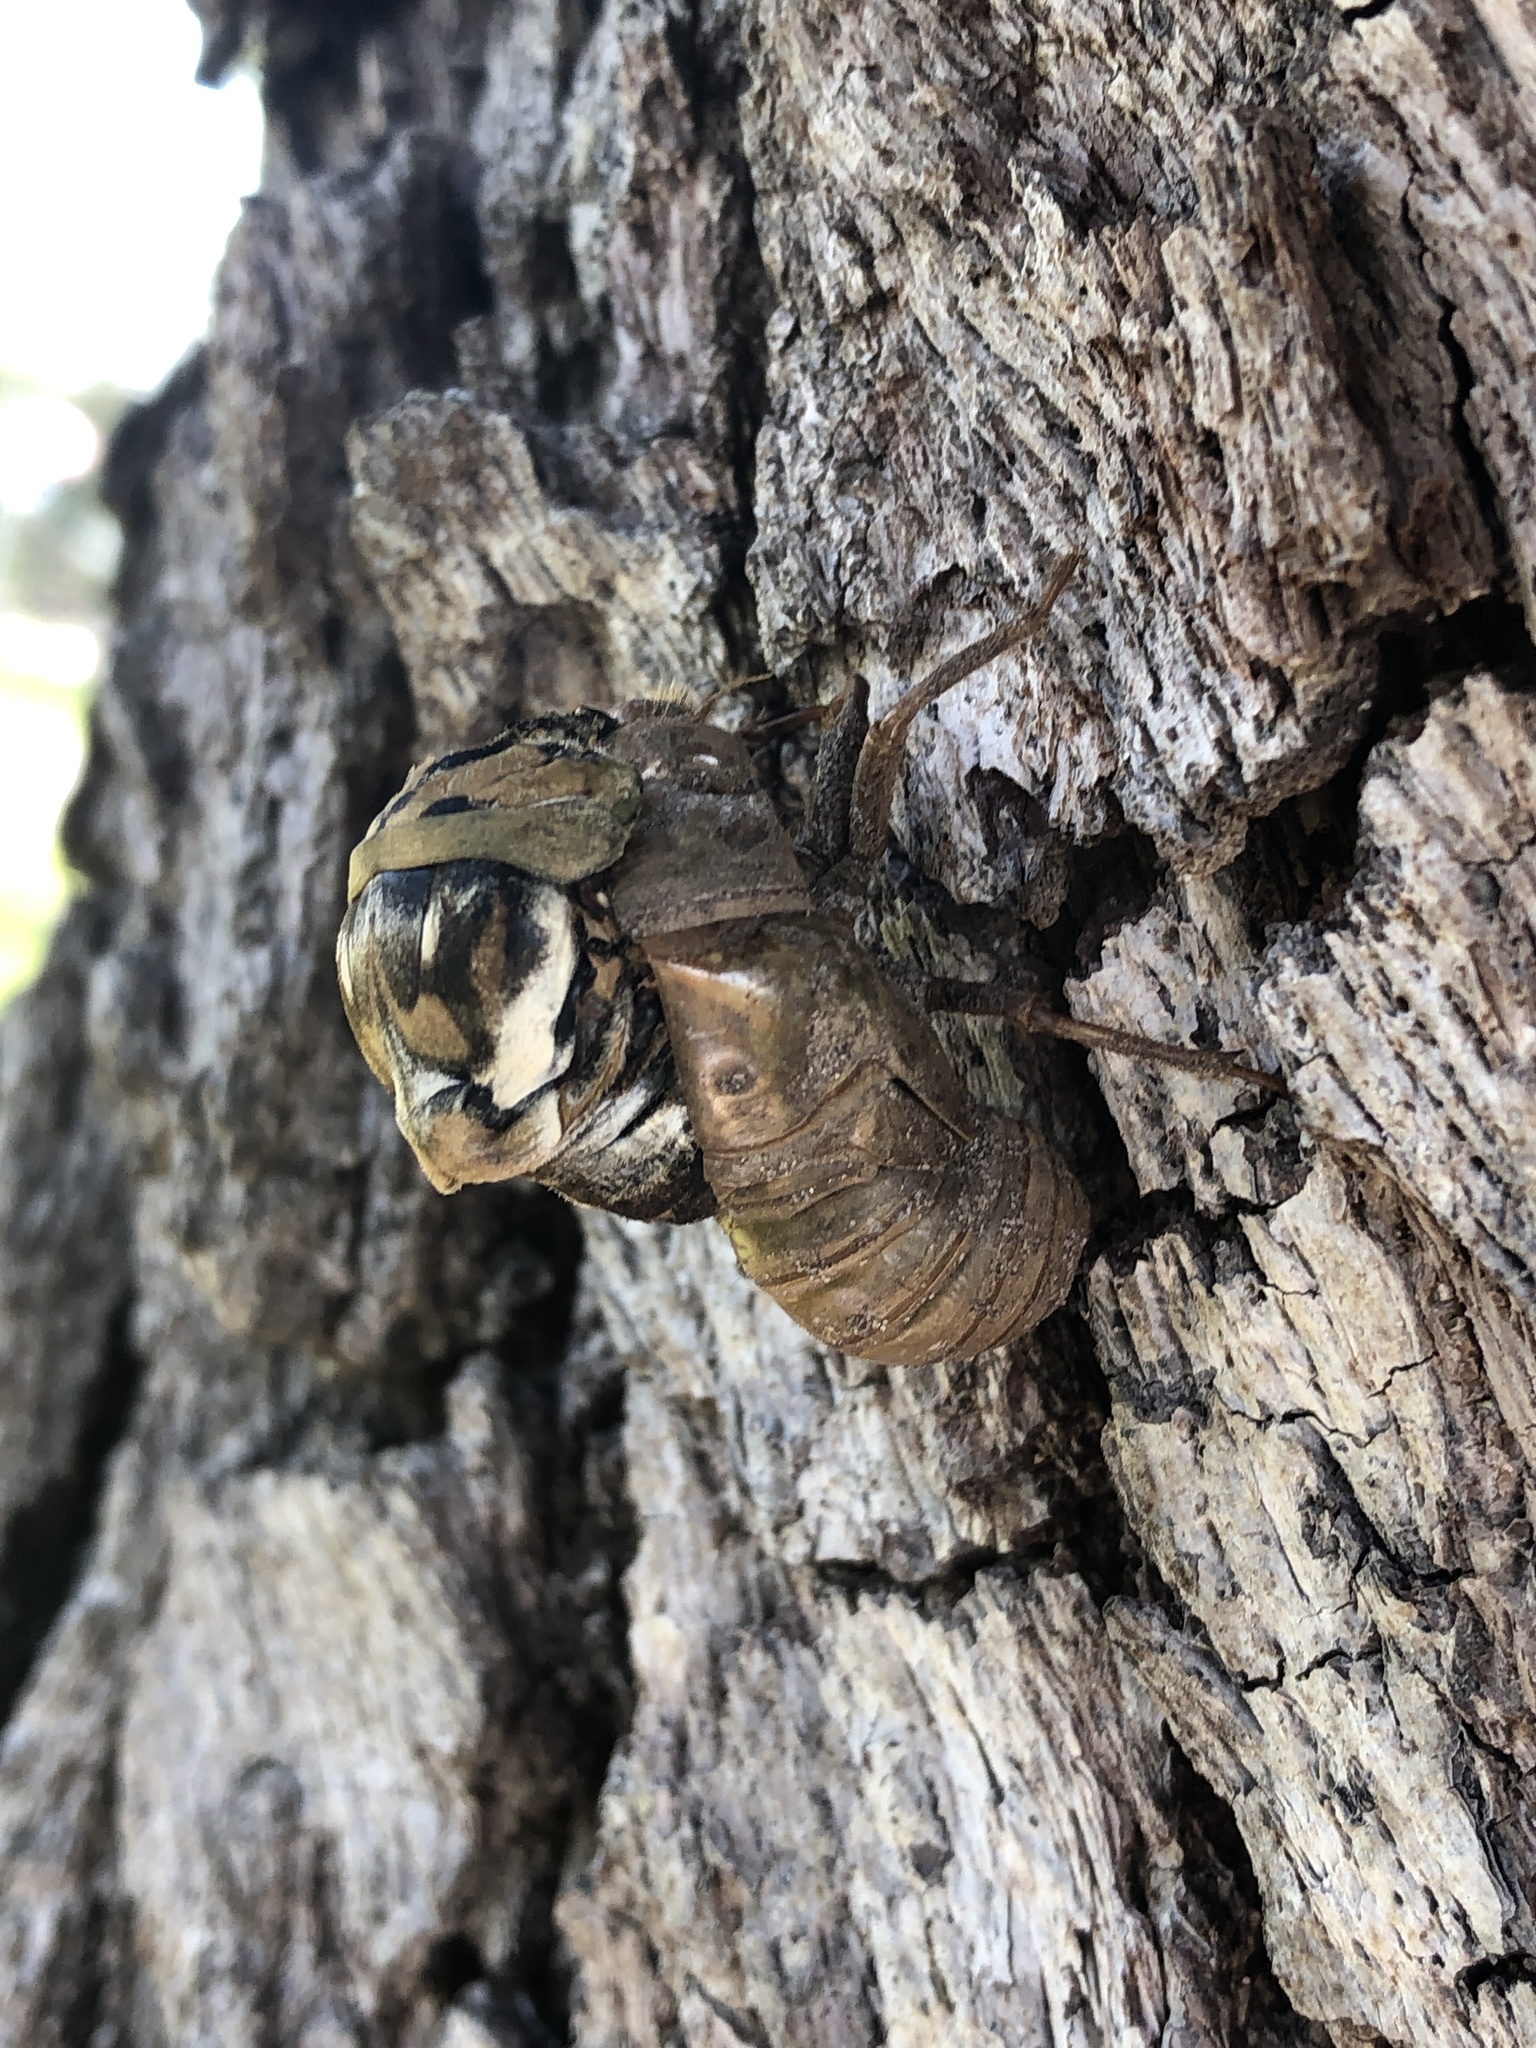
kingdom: Animalia
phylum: Arthropoda
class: Insecta
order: Hemiptera
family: Cicadidae
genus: Megatibicen
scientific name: Megatibicen resh
